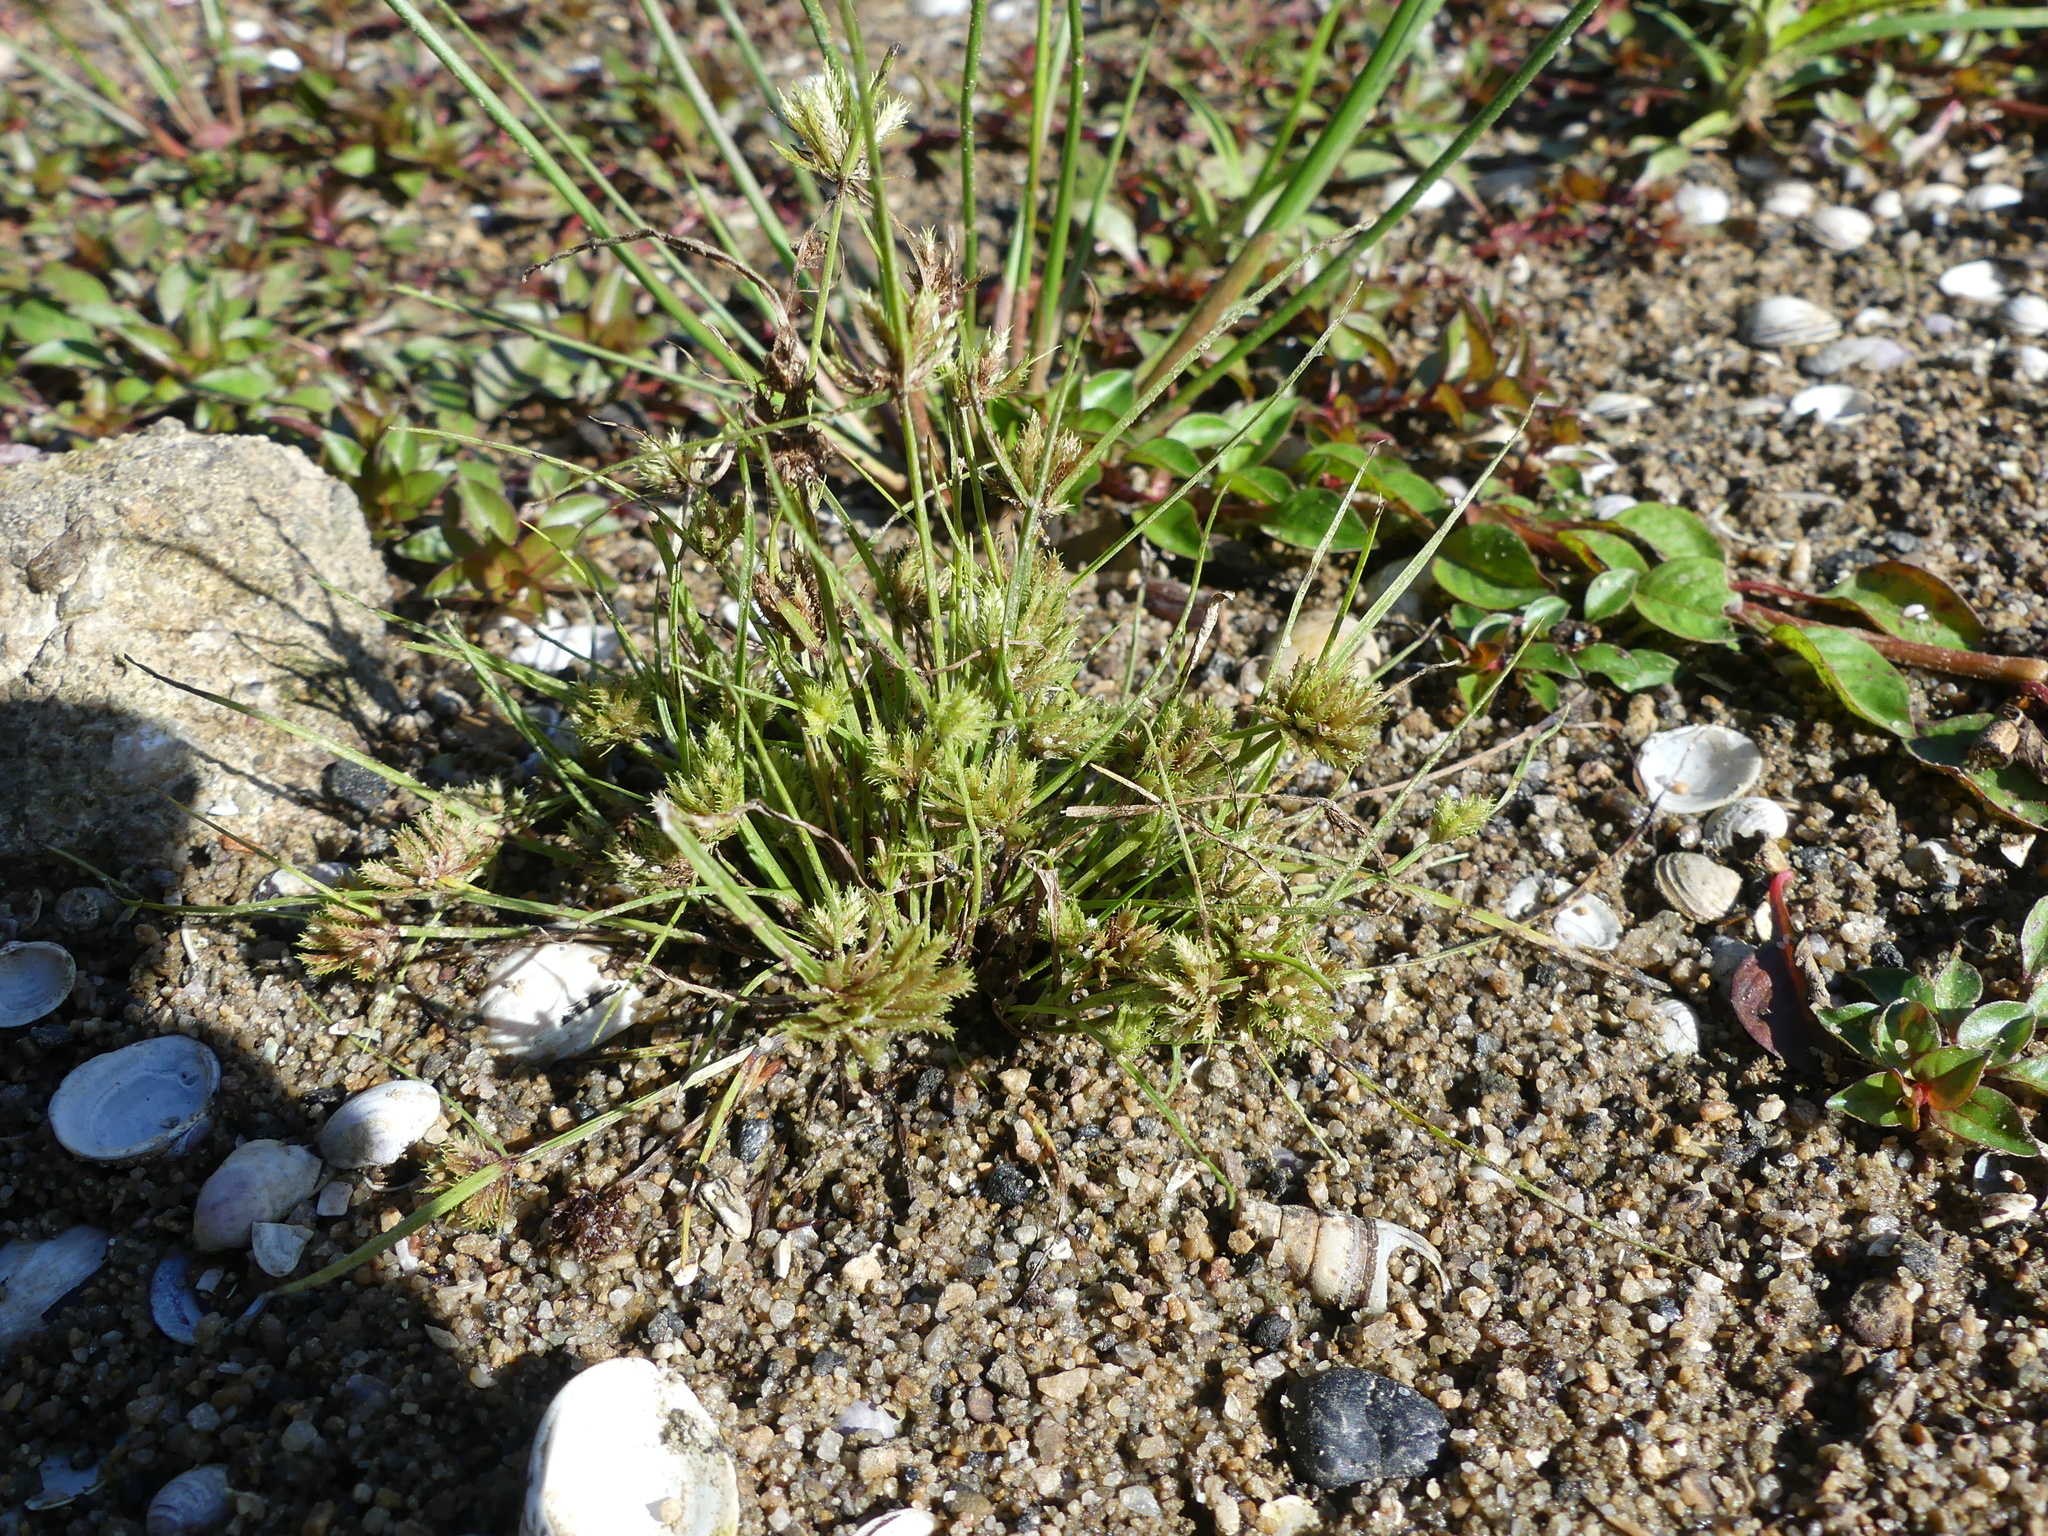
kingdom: Plantae
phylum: Tracheophyta
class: Liliopsida
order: Poales
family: Cyperaceae
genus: Cyperus
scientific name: Cyperus squarrosus
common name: Awned cyperus
